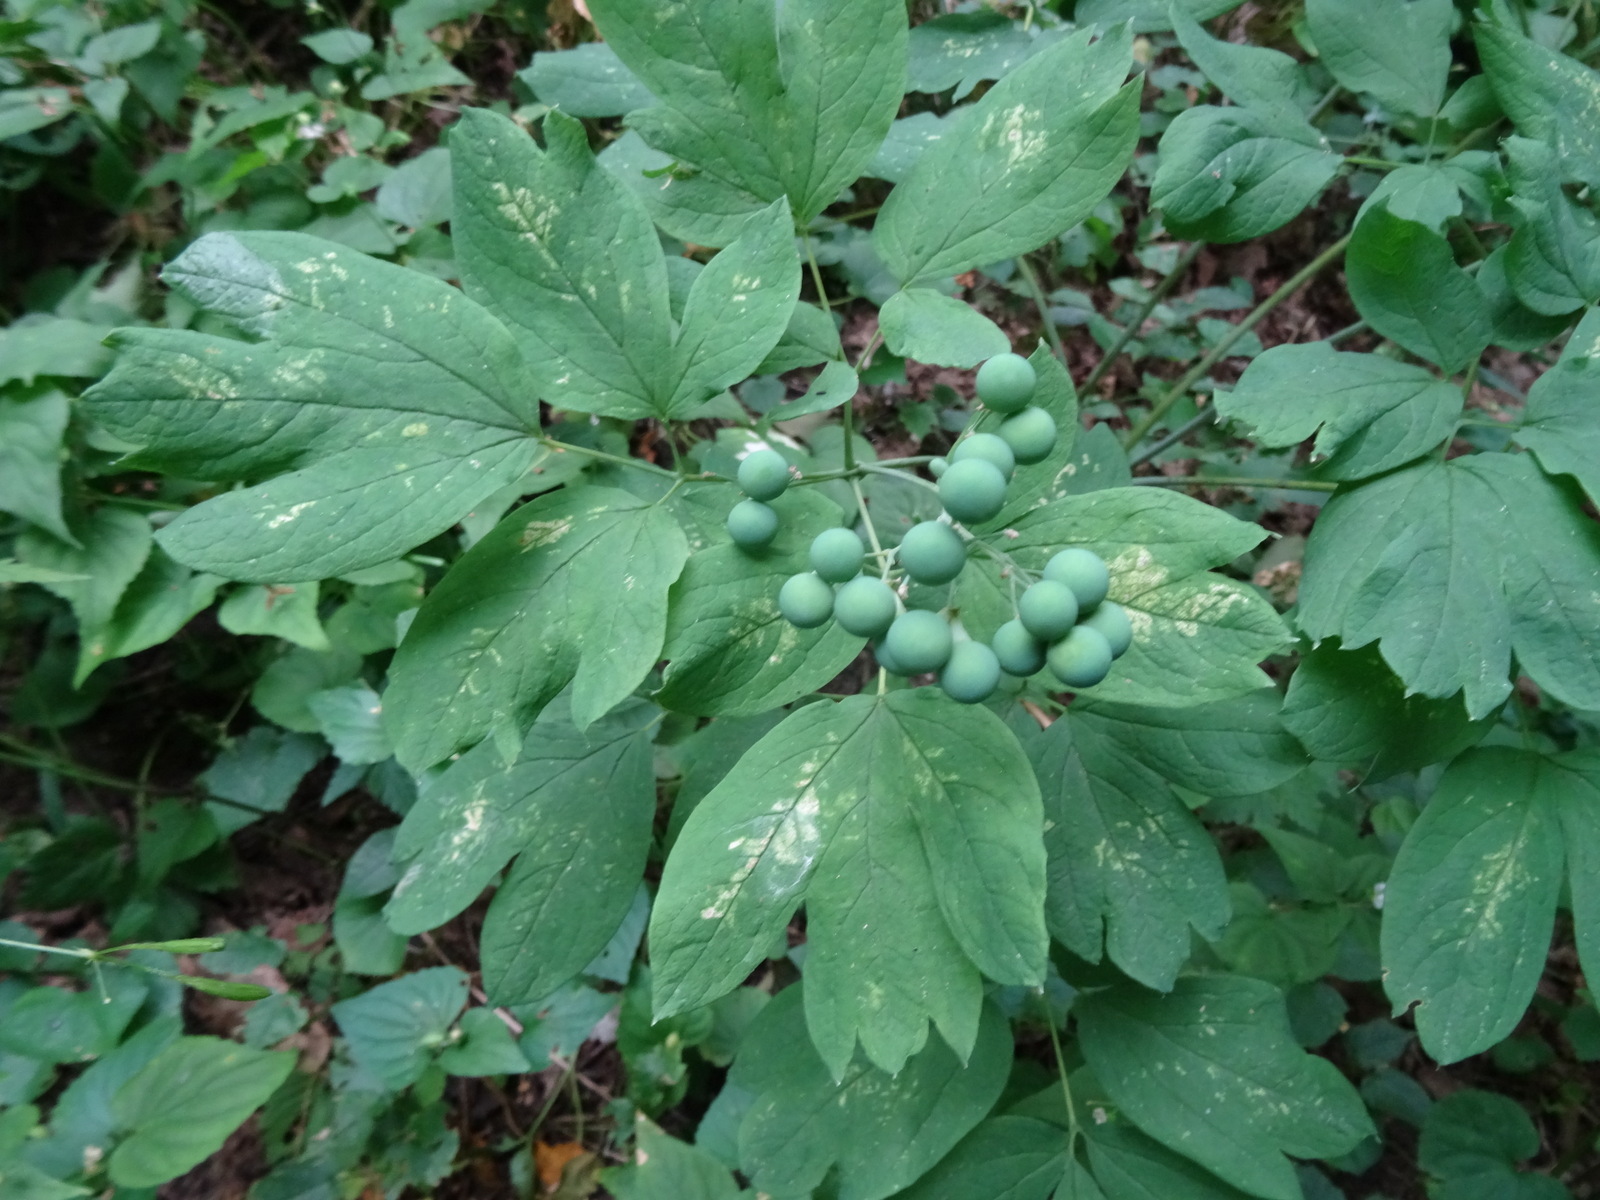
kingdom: Plantae
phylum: Tracheophyta
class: Magnoliopsida
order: Ranunculales
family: Berberidaceae
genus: Caulophyllum
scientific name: Caulophyllum thalictroides
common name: Blue cohosh
